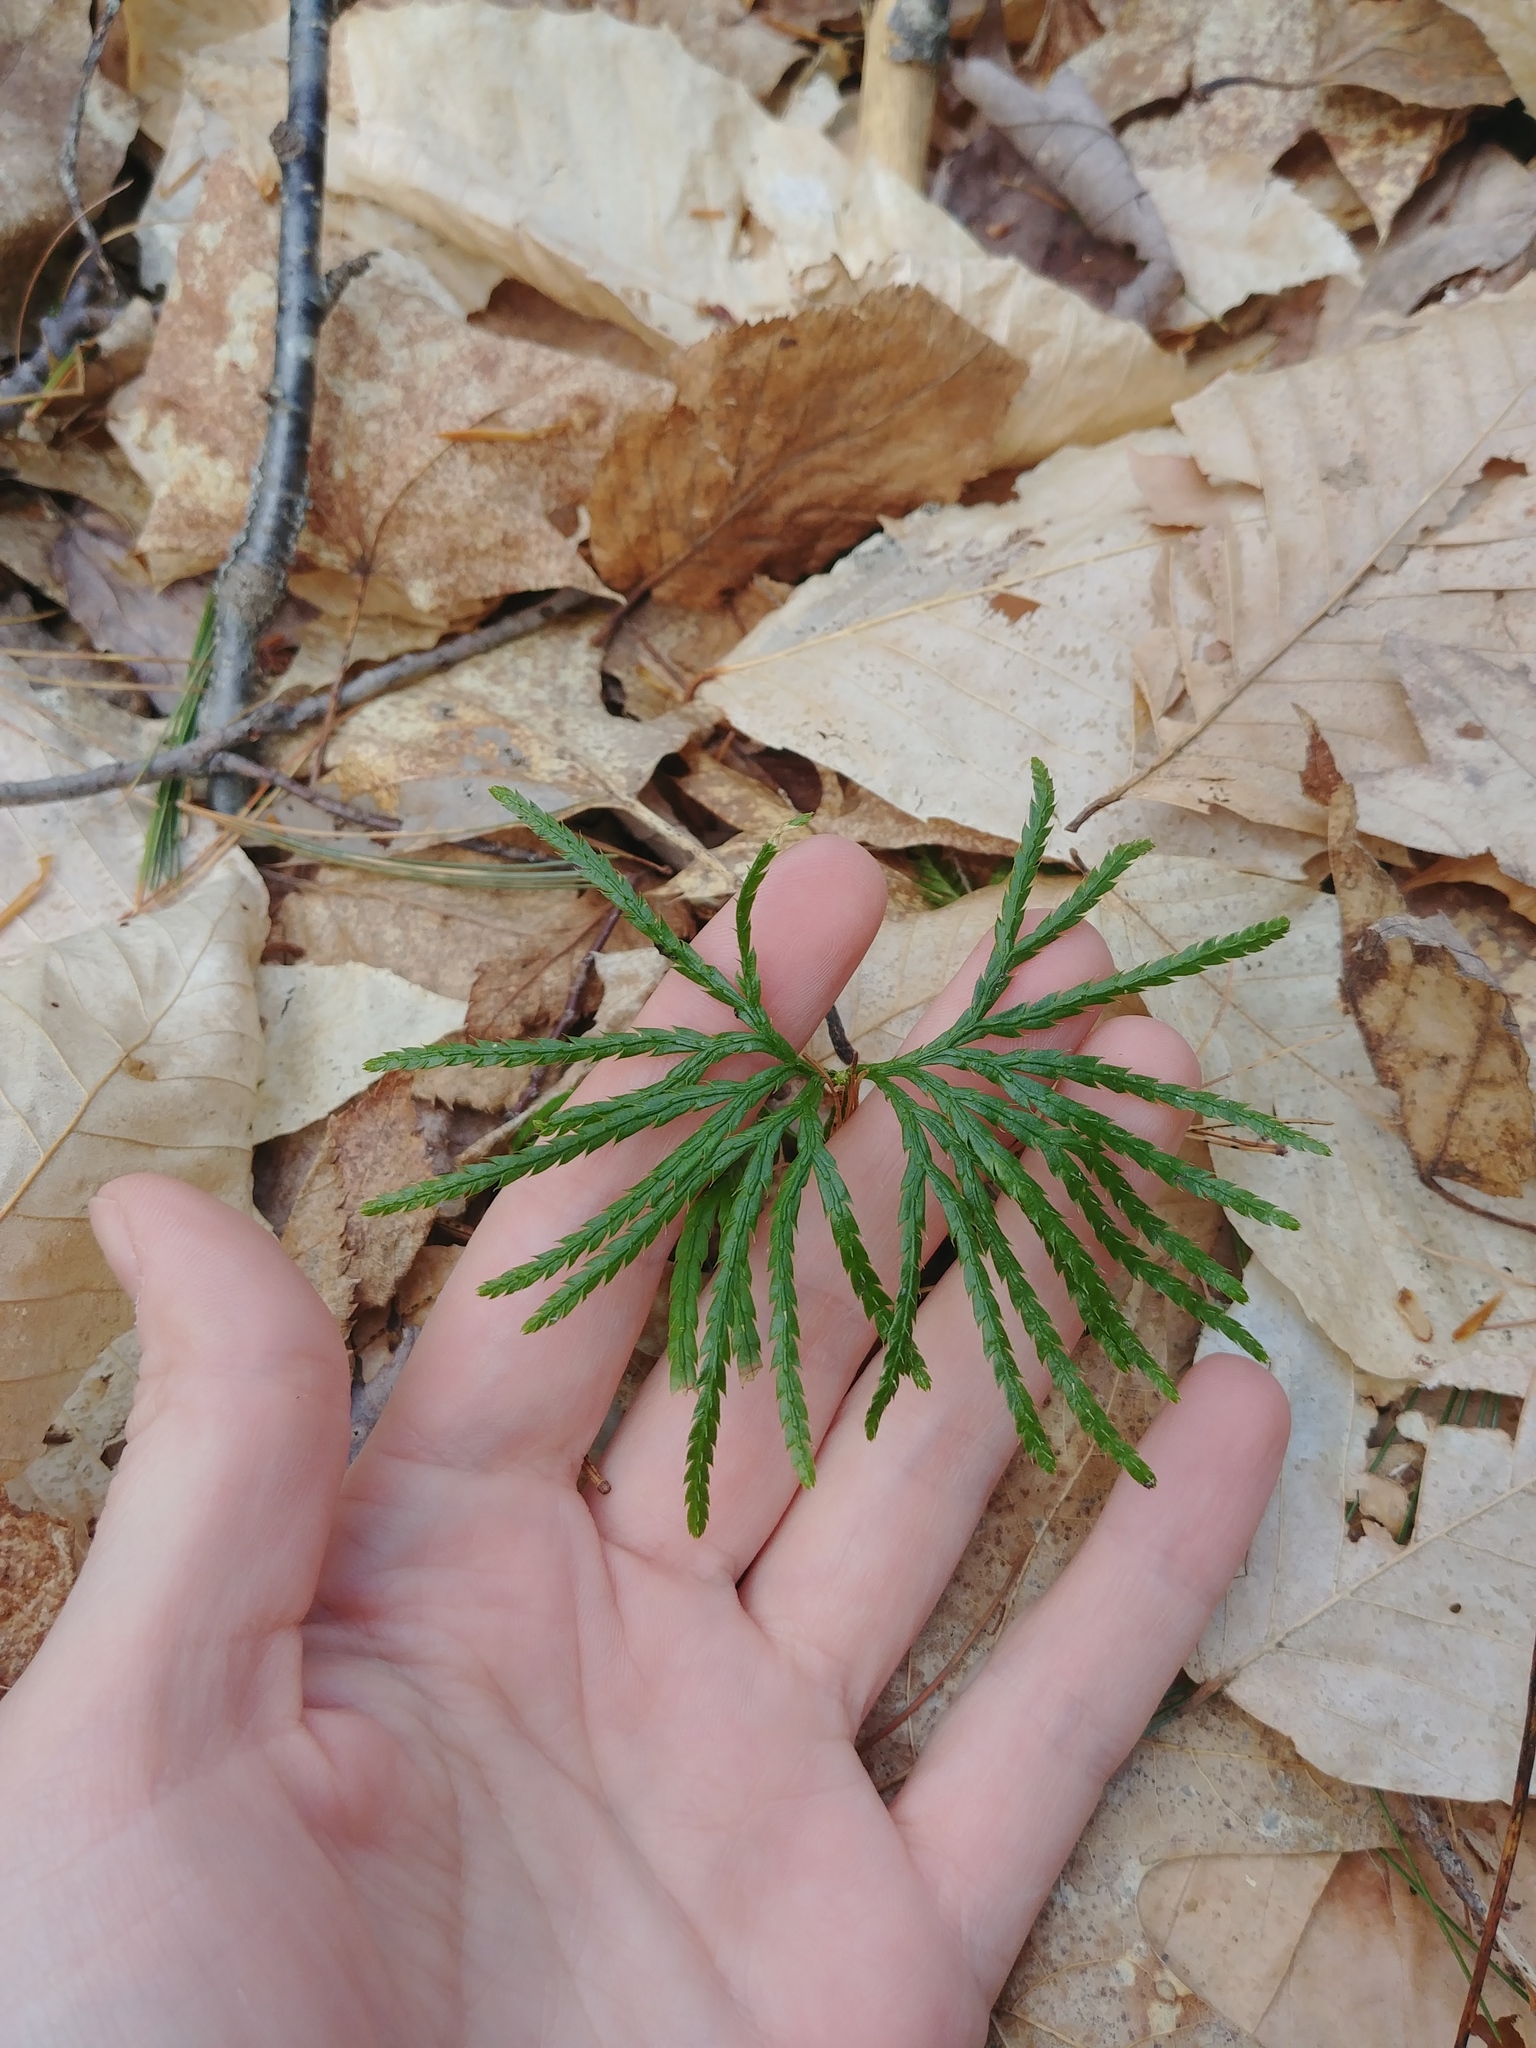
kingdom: Plantae
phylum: Tracheophyta
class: Lycopodiopsida
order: Lycopodiales
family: Lycopodiaceae
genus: Diphasiastrum
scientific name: Diphasiastrum digitatum
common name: Southern running-pine
